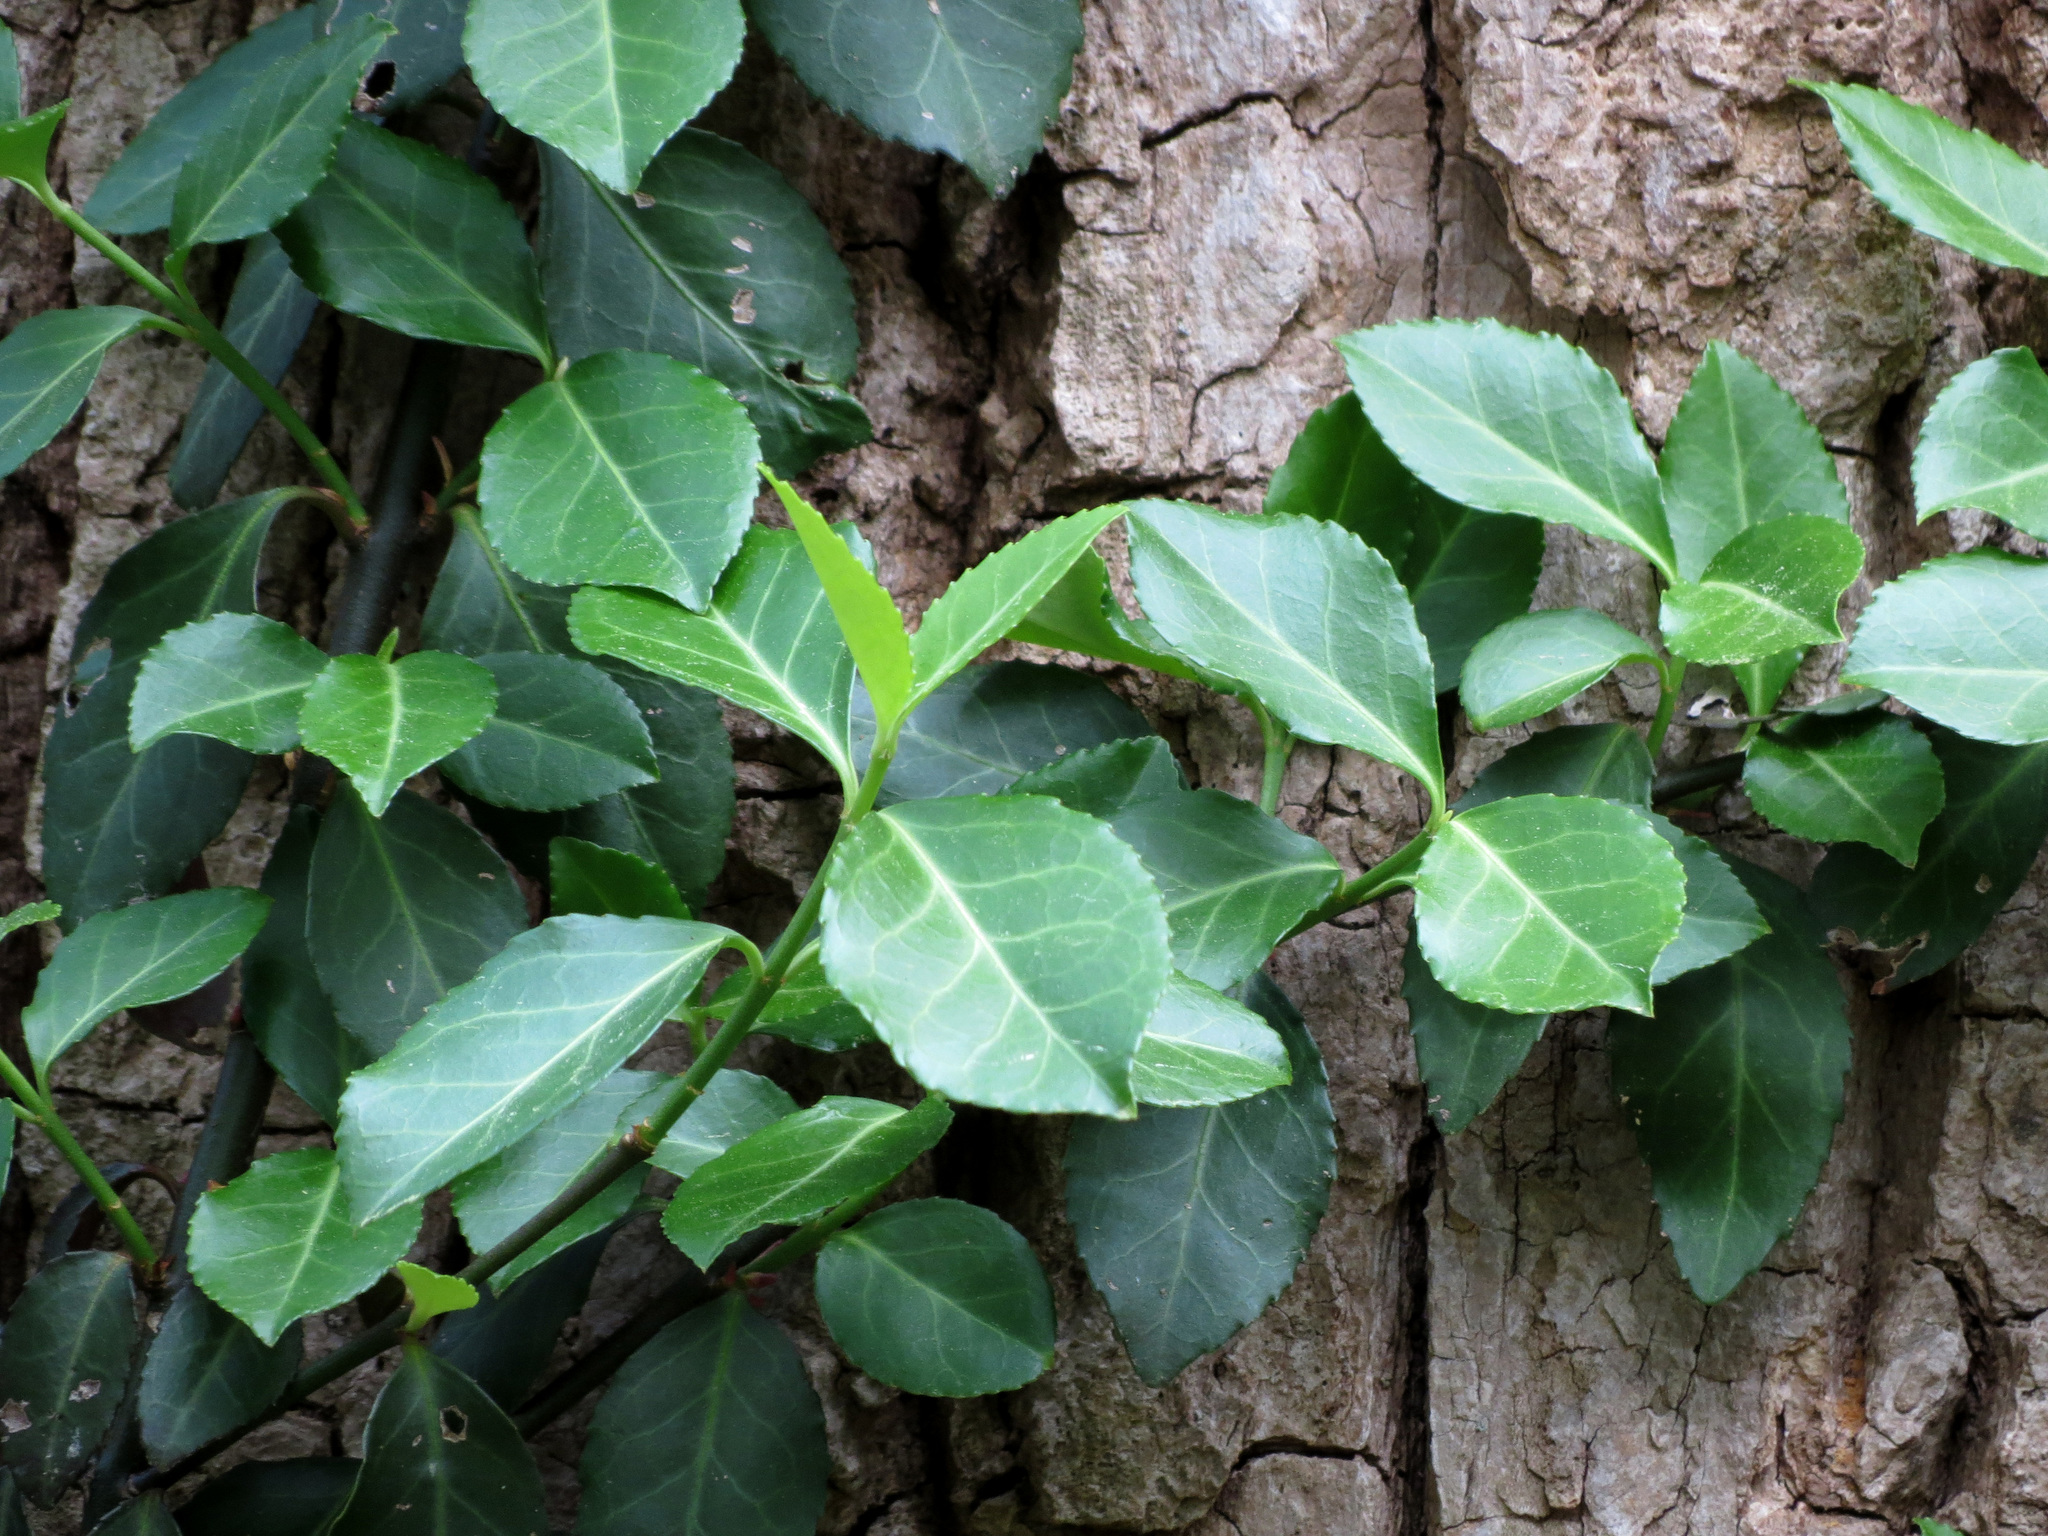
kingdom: Plantae
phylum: Tracheophyta
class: Magnoliopsida
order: Celastrales
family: Celastraceae
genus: Euonymus
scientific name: Euonymus fortunei
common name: Climbing euonymus
